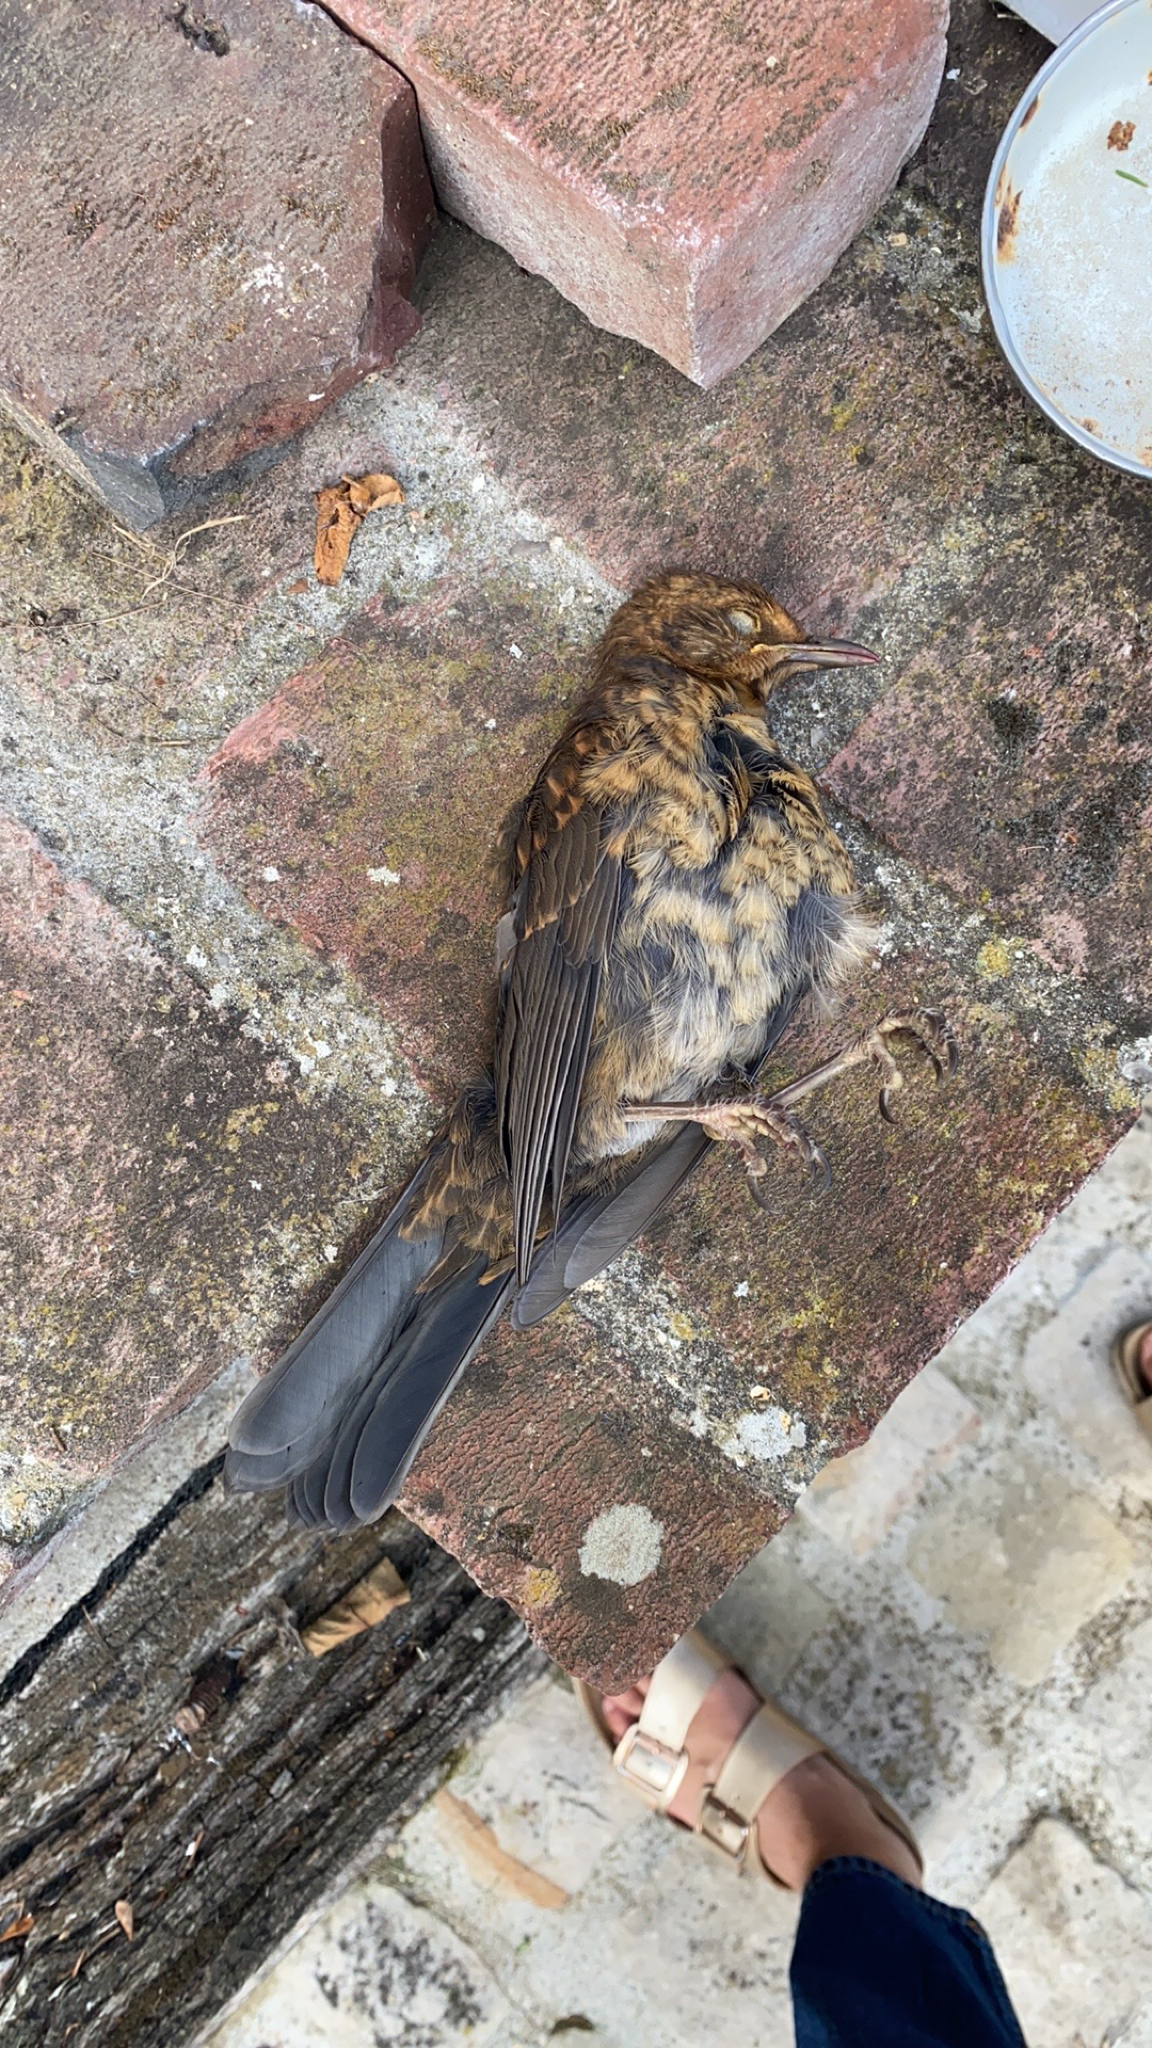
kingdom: Animalia
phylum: Chordata
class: Aves
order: Passeriformes
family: Turdidae
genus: Turdus
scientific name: Turdus merula
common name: Common blackbird
